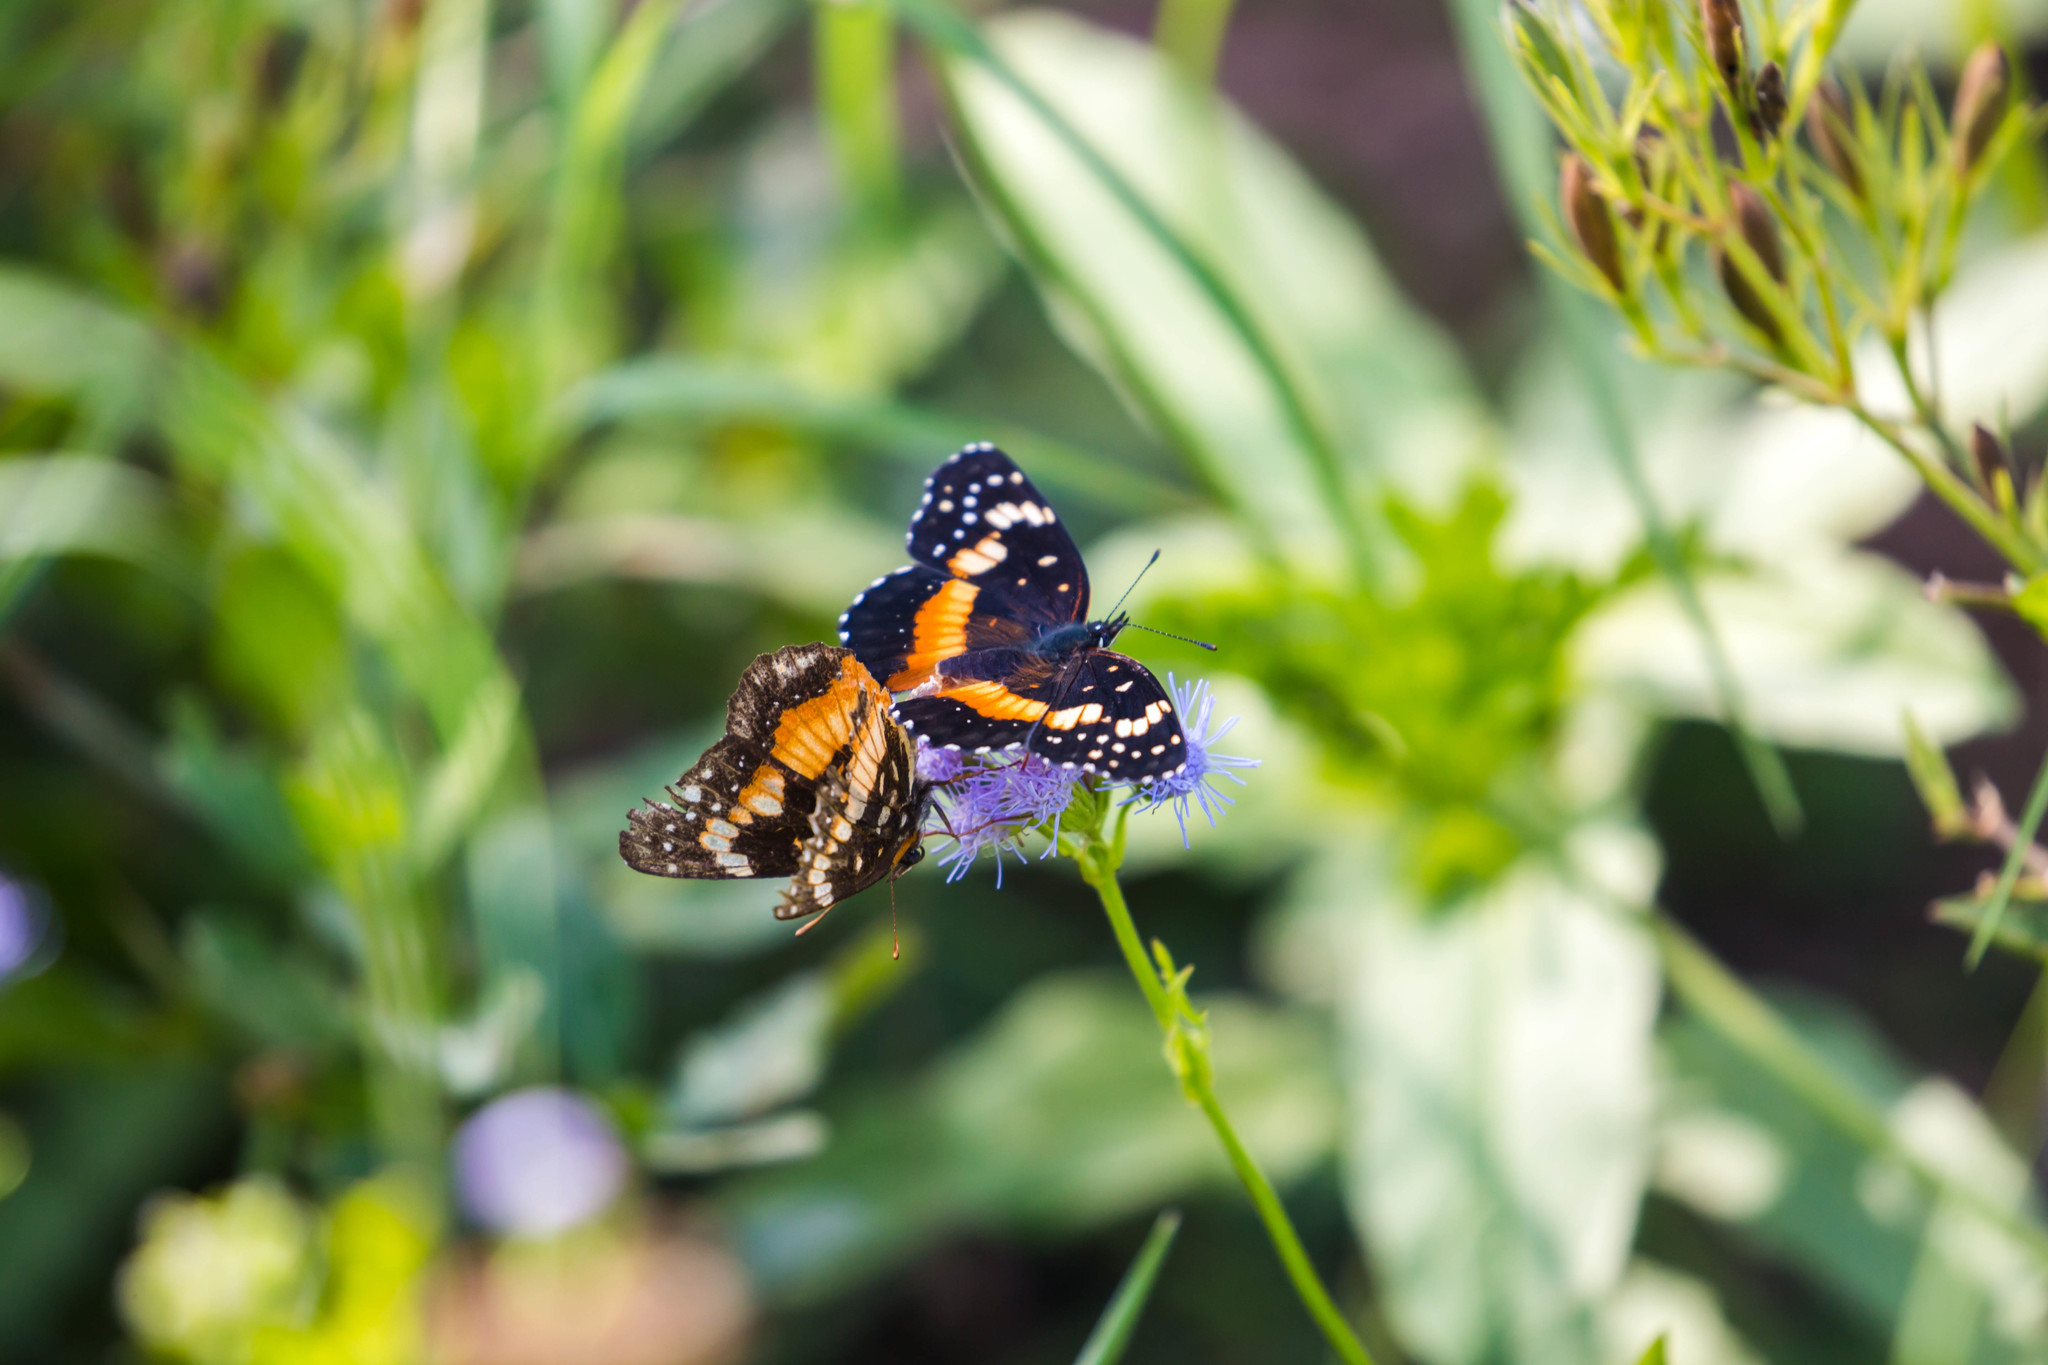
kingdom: Animalia
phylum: Arthropoda
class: Insecta
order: Lepidoptera
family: Nymphalidae
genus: Chlosyne
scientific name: Chlosyne lacinia
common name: Bordered patch
